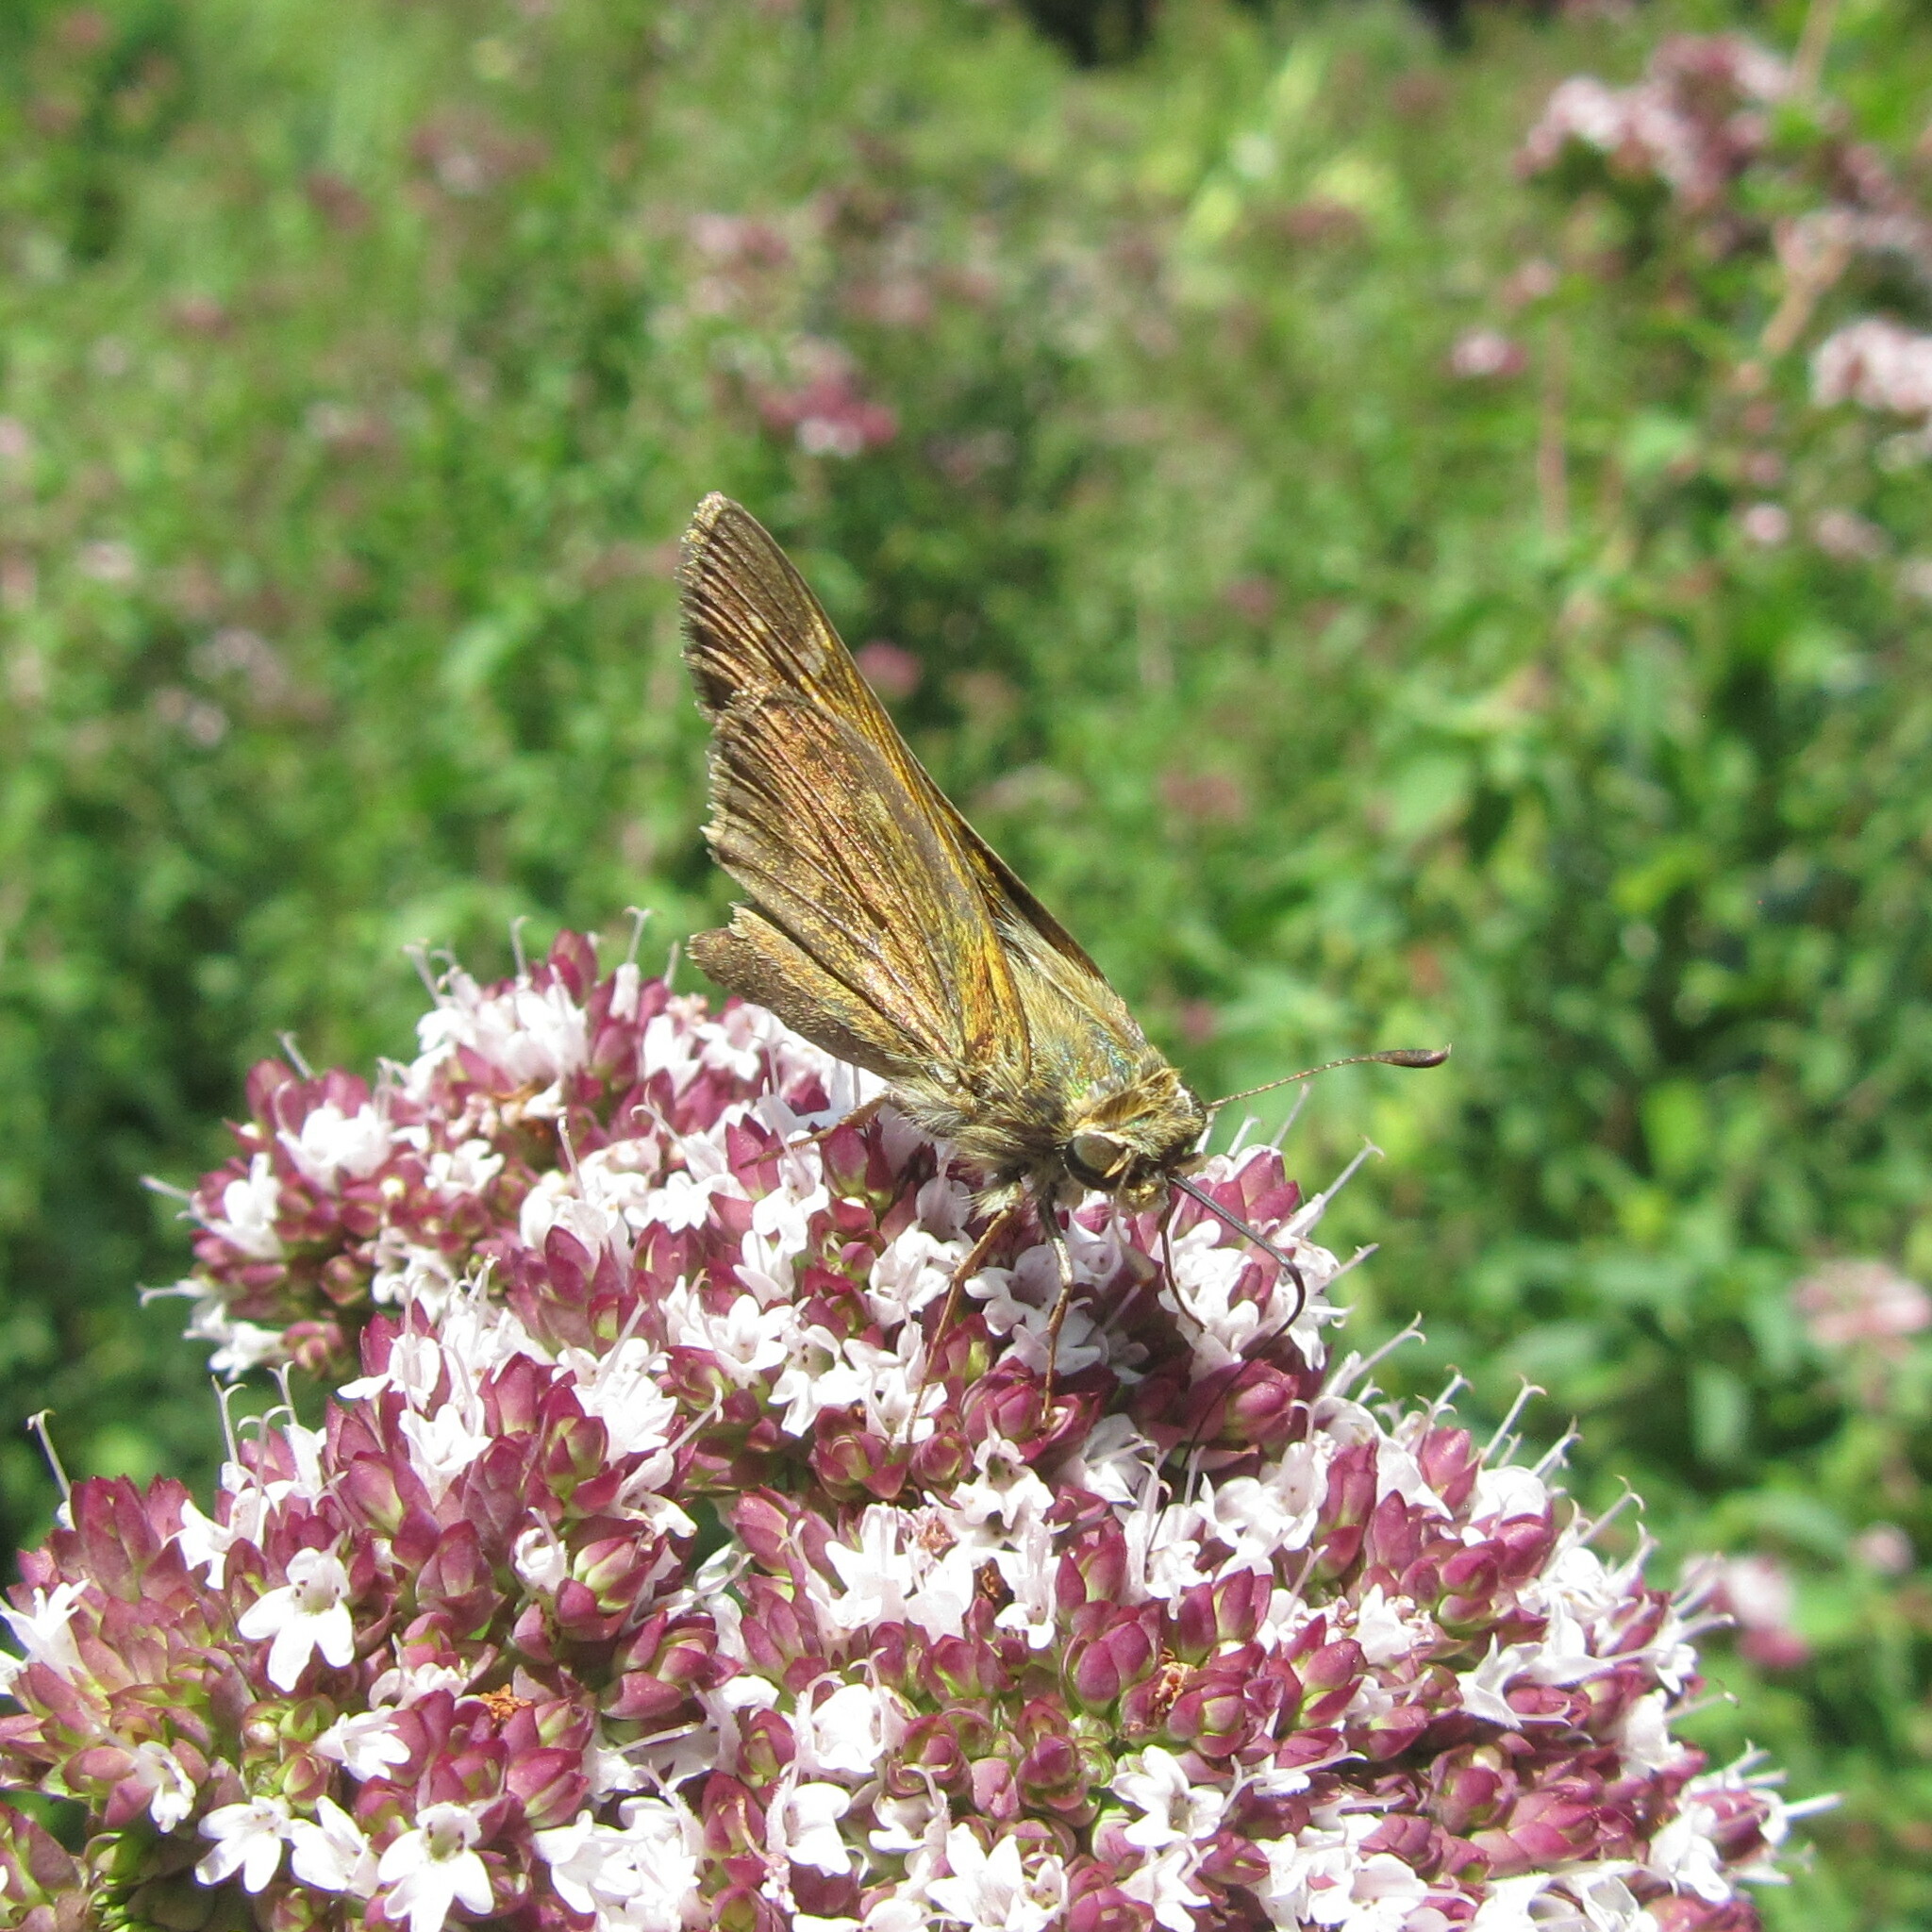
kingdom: Animalia
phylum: Arthropoda
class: Insecta
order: Lepidoptera
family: Hesperiidae
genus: Atalopedes
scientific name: Atalopedes
